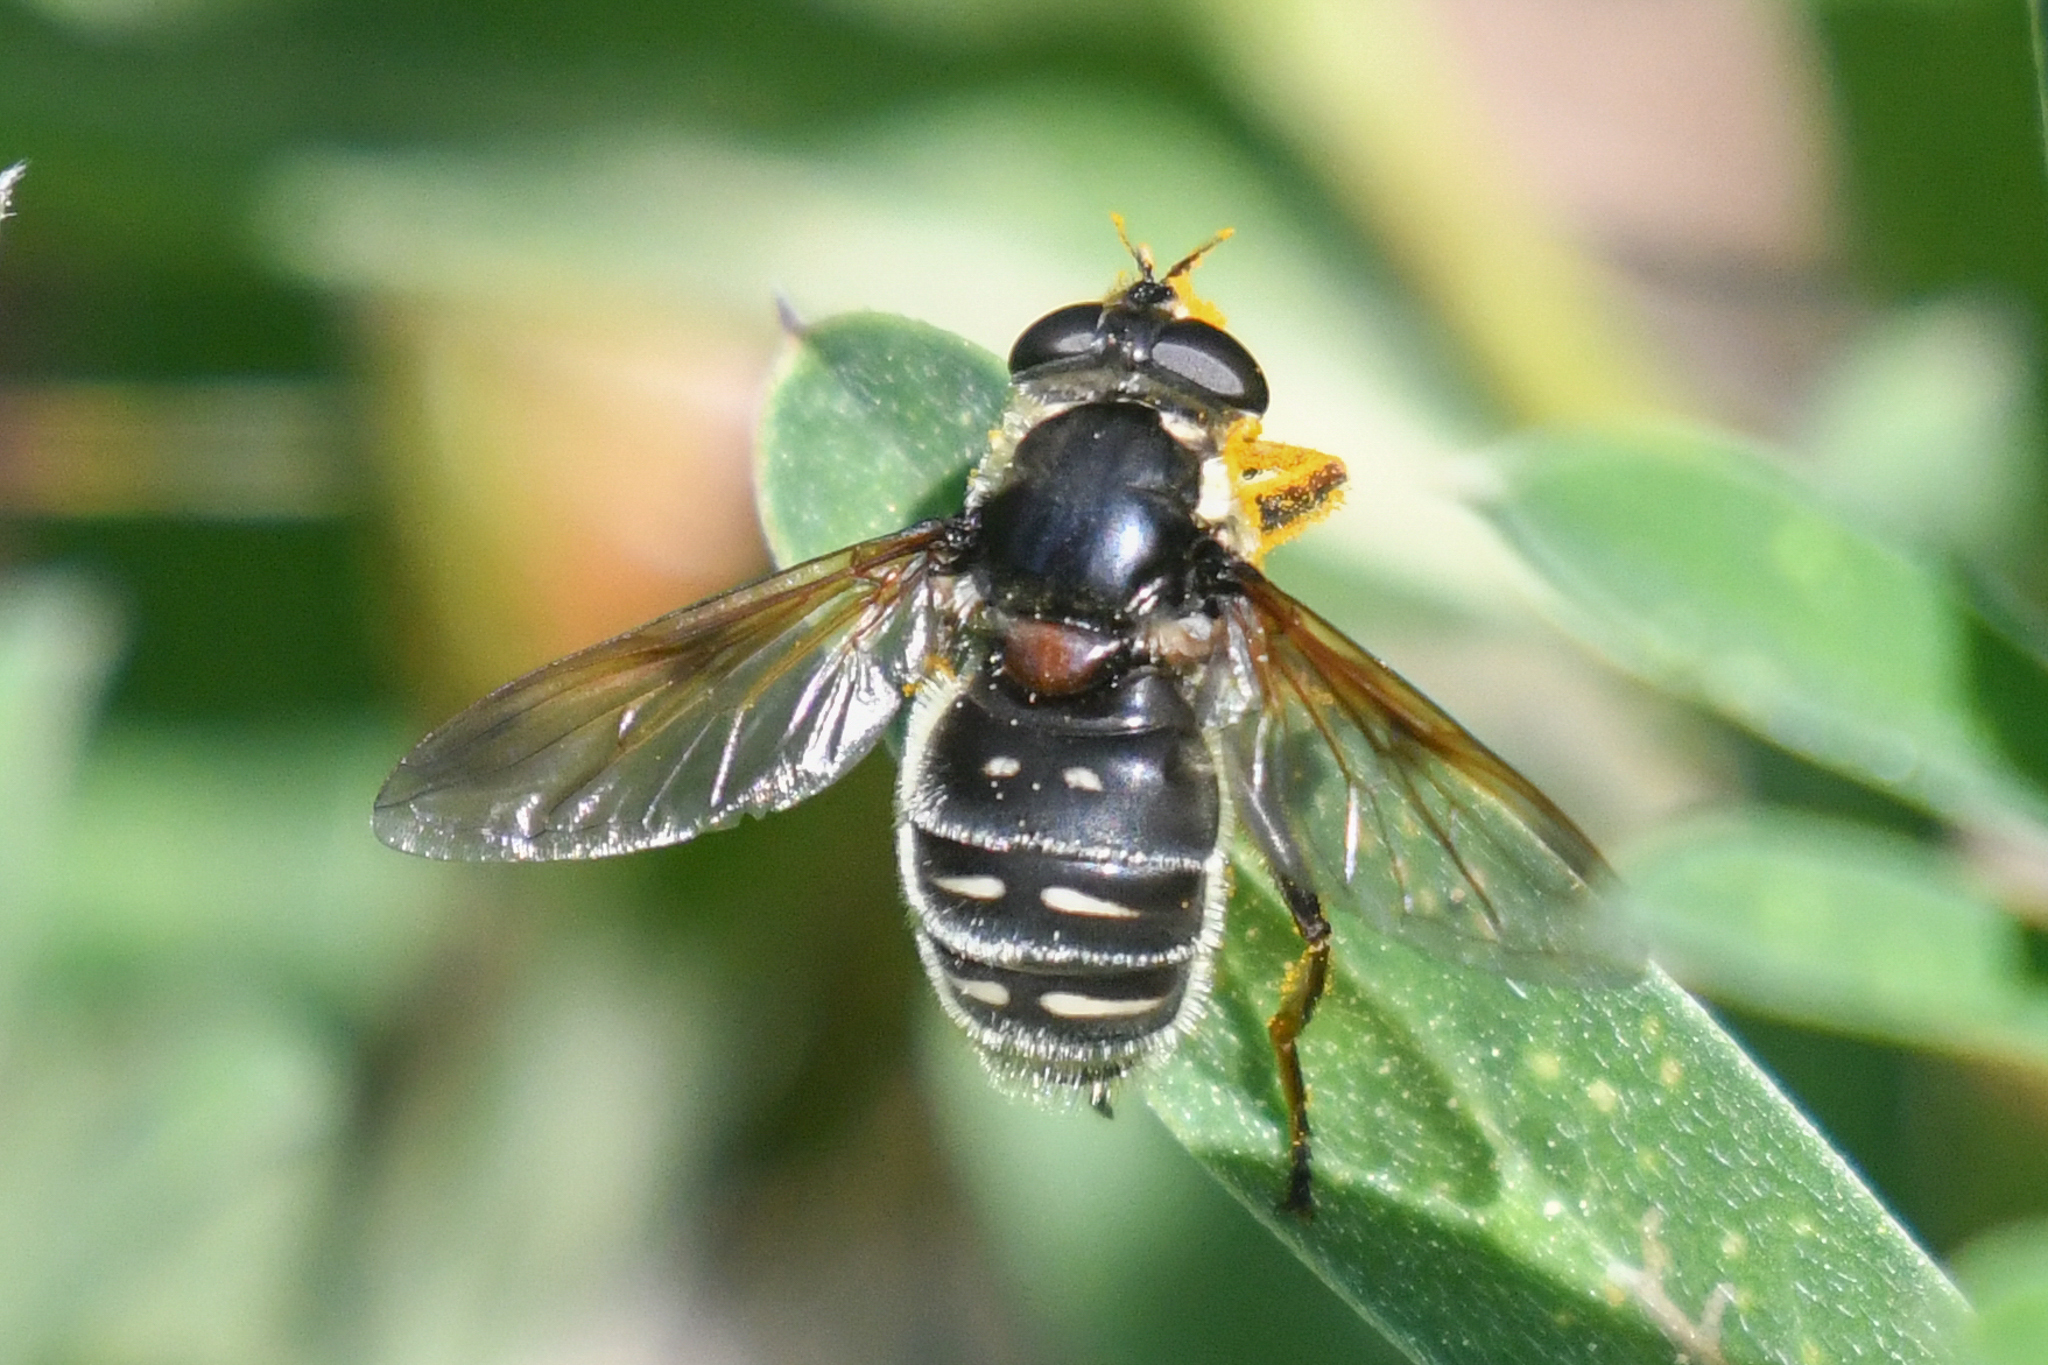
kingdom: Animalia
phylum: Arthropoda
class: Insecta
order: Diptera
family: Syrphidae
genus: Sericomyia
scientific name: Sericomyia militaris
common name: Narrow-banded pond fly
